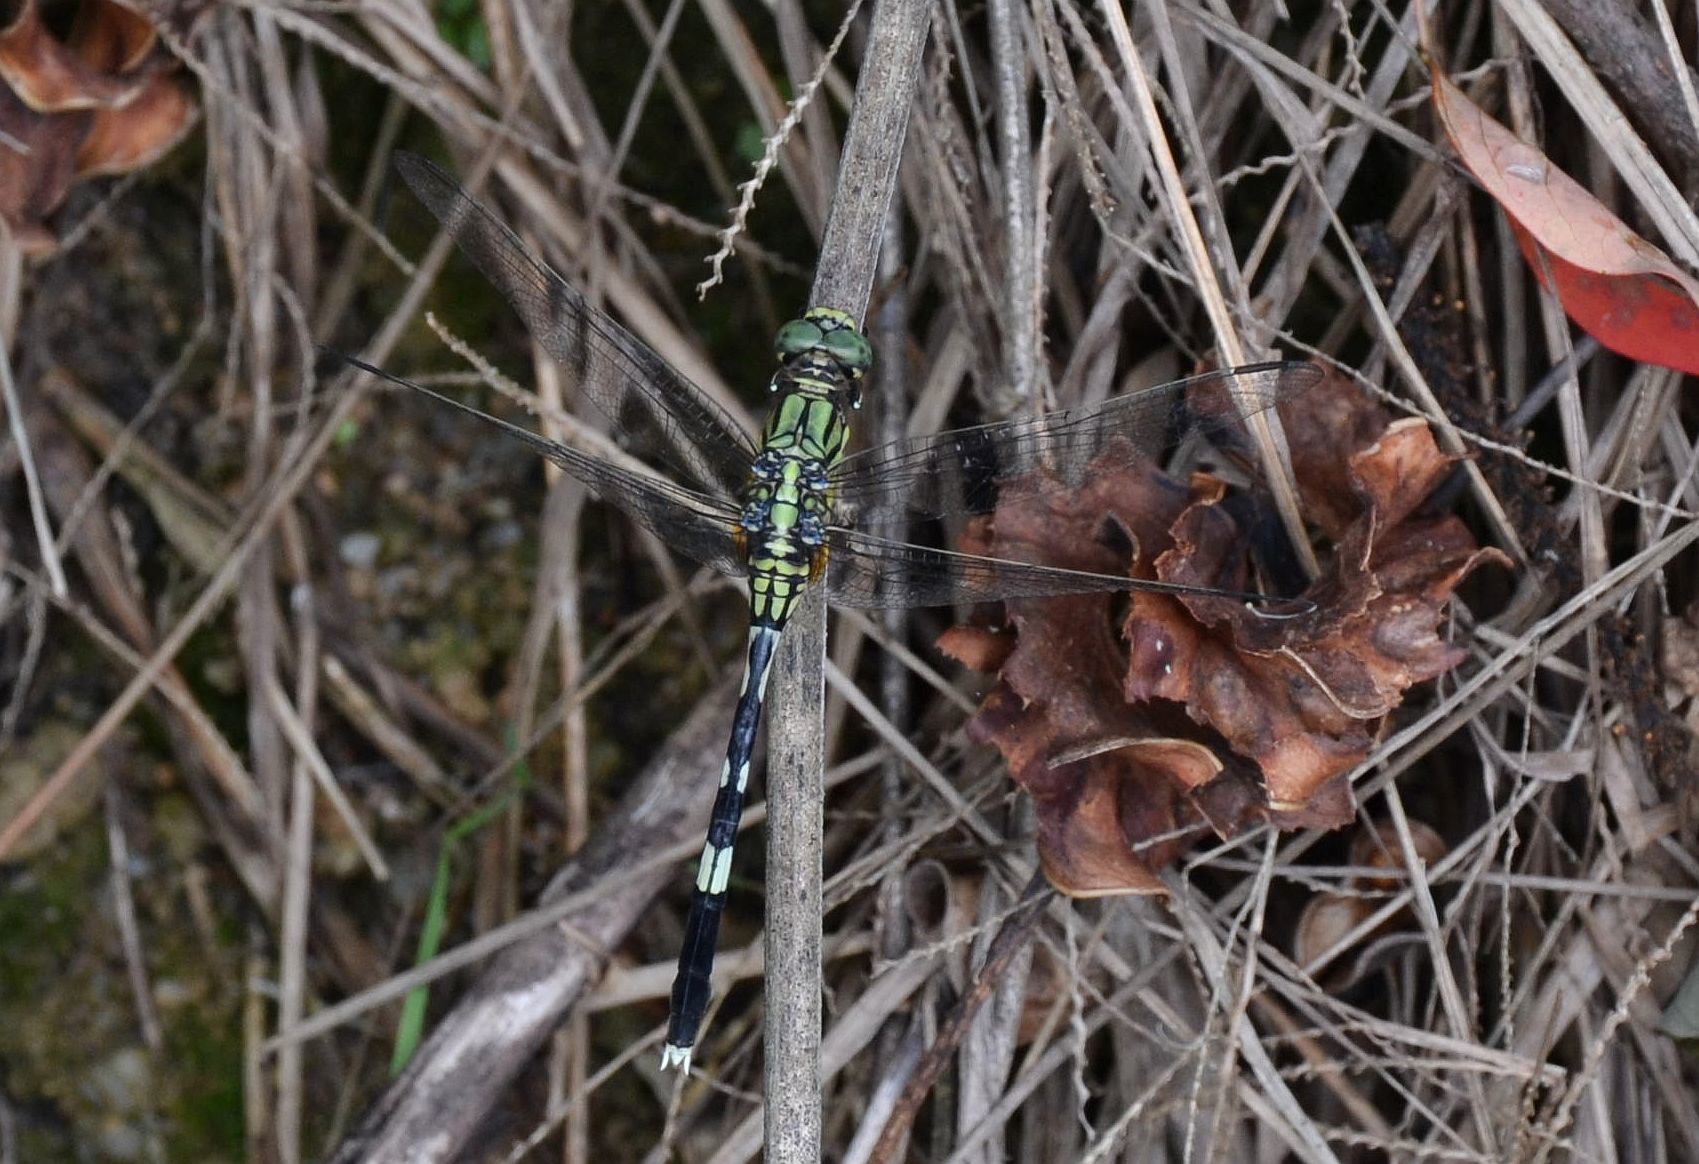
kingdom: Animalia
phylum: Arthropoda
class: Insecta
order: Odonata
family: Libellulidae
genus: Orthetrum
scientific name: Orthetrum sabina
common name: Slender skimmer
